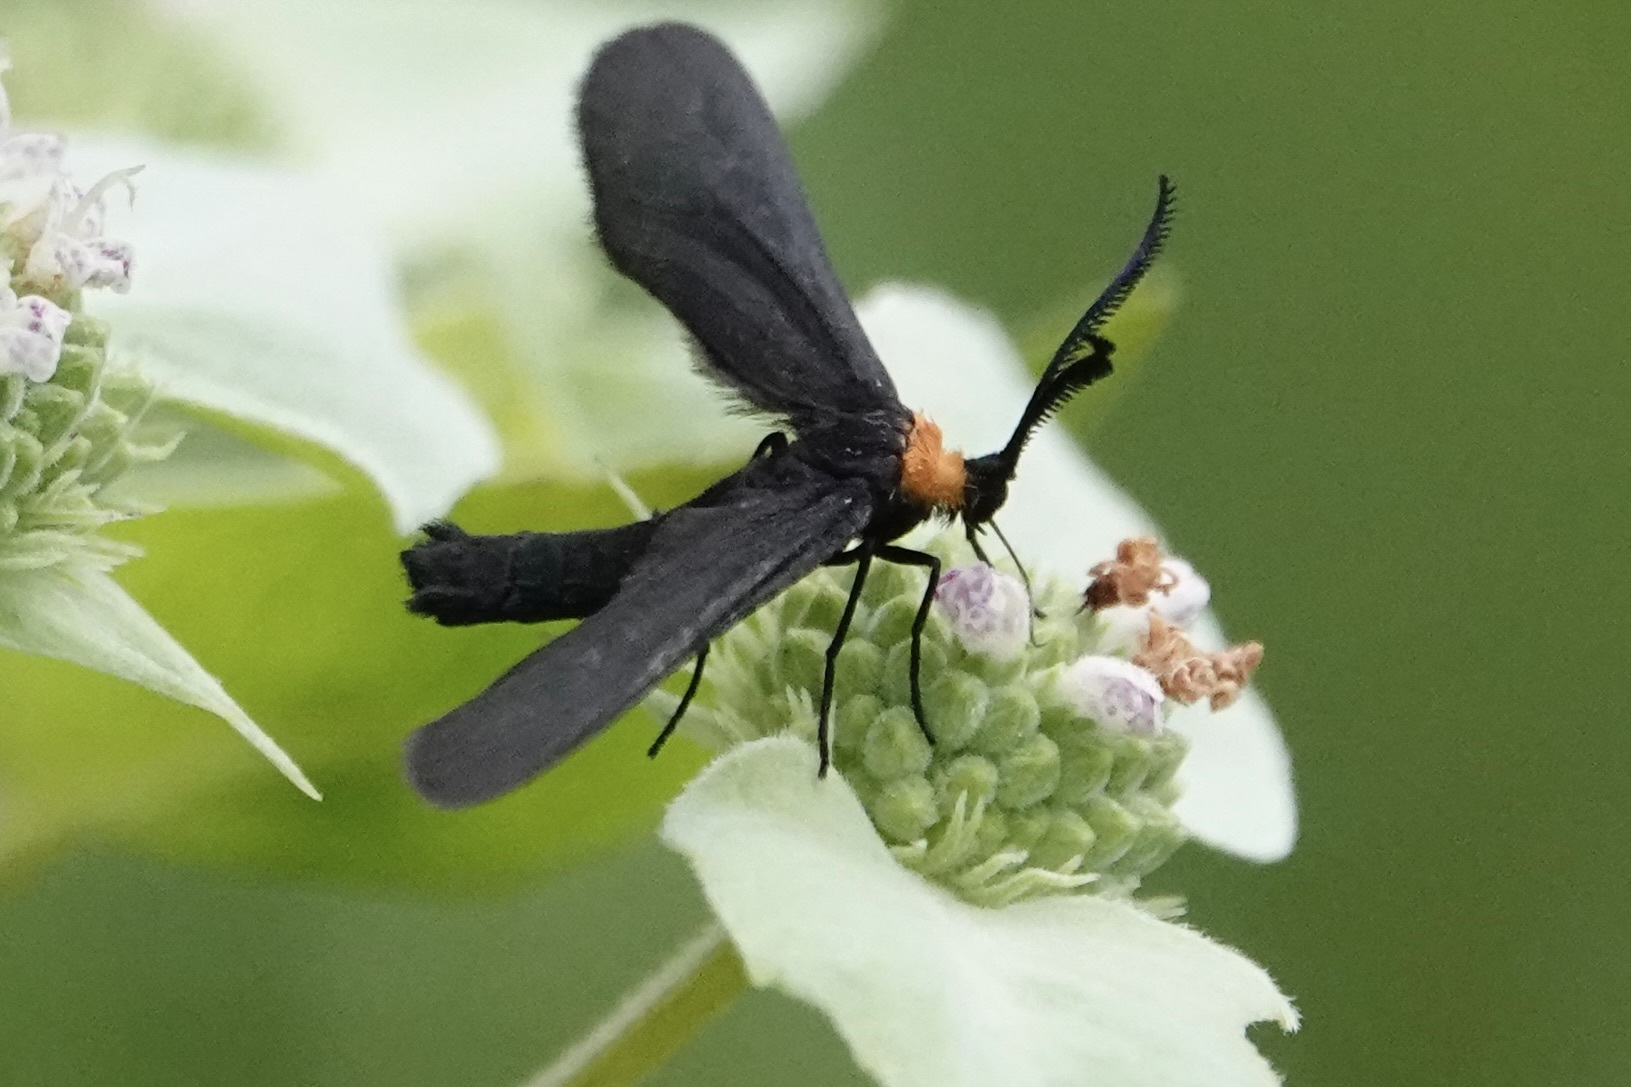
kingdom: Animalia
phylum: Arthropoda
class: Insecta
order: Lepidoptera
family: Zygaenidae
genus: Harrisina
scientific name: Harrisina americana
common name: Grapeleaf skeletonizer moth
